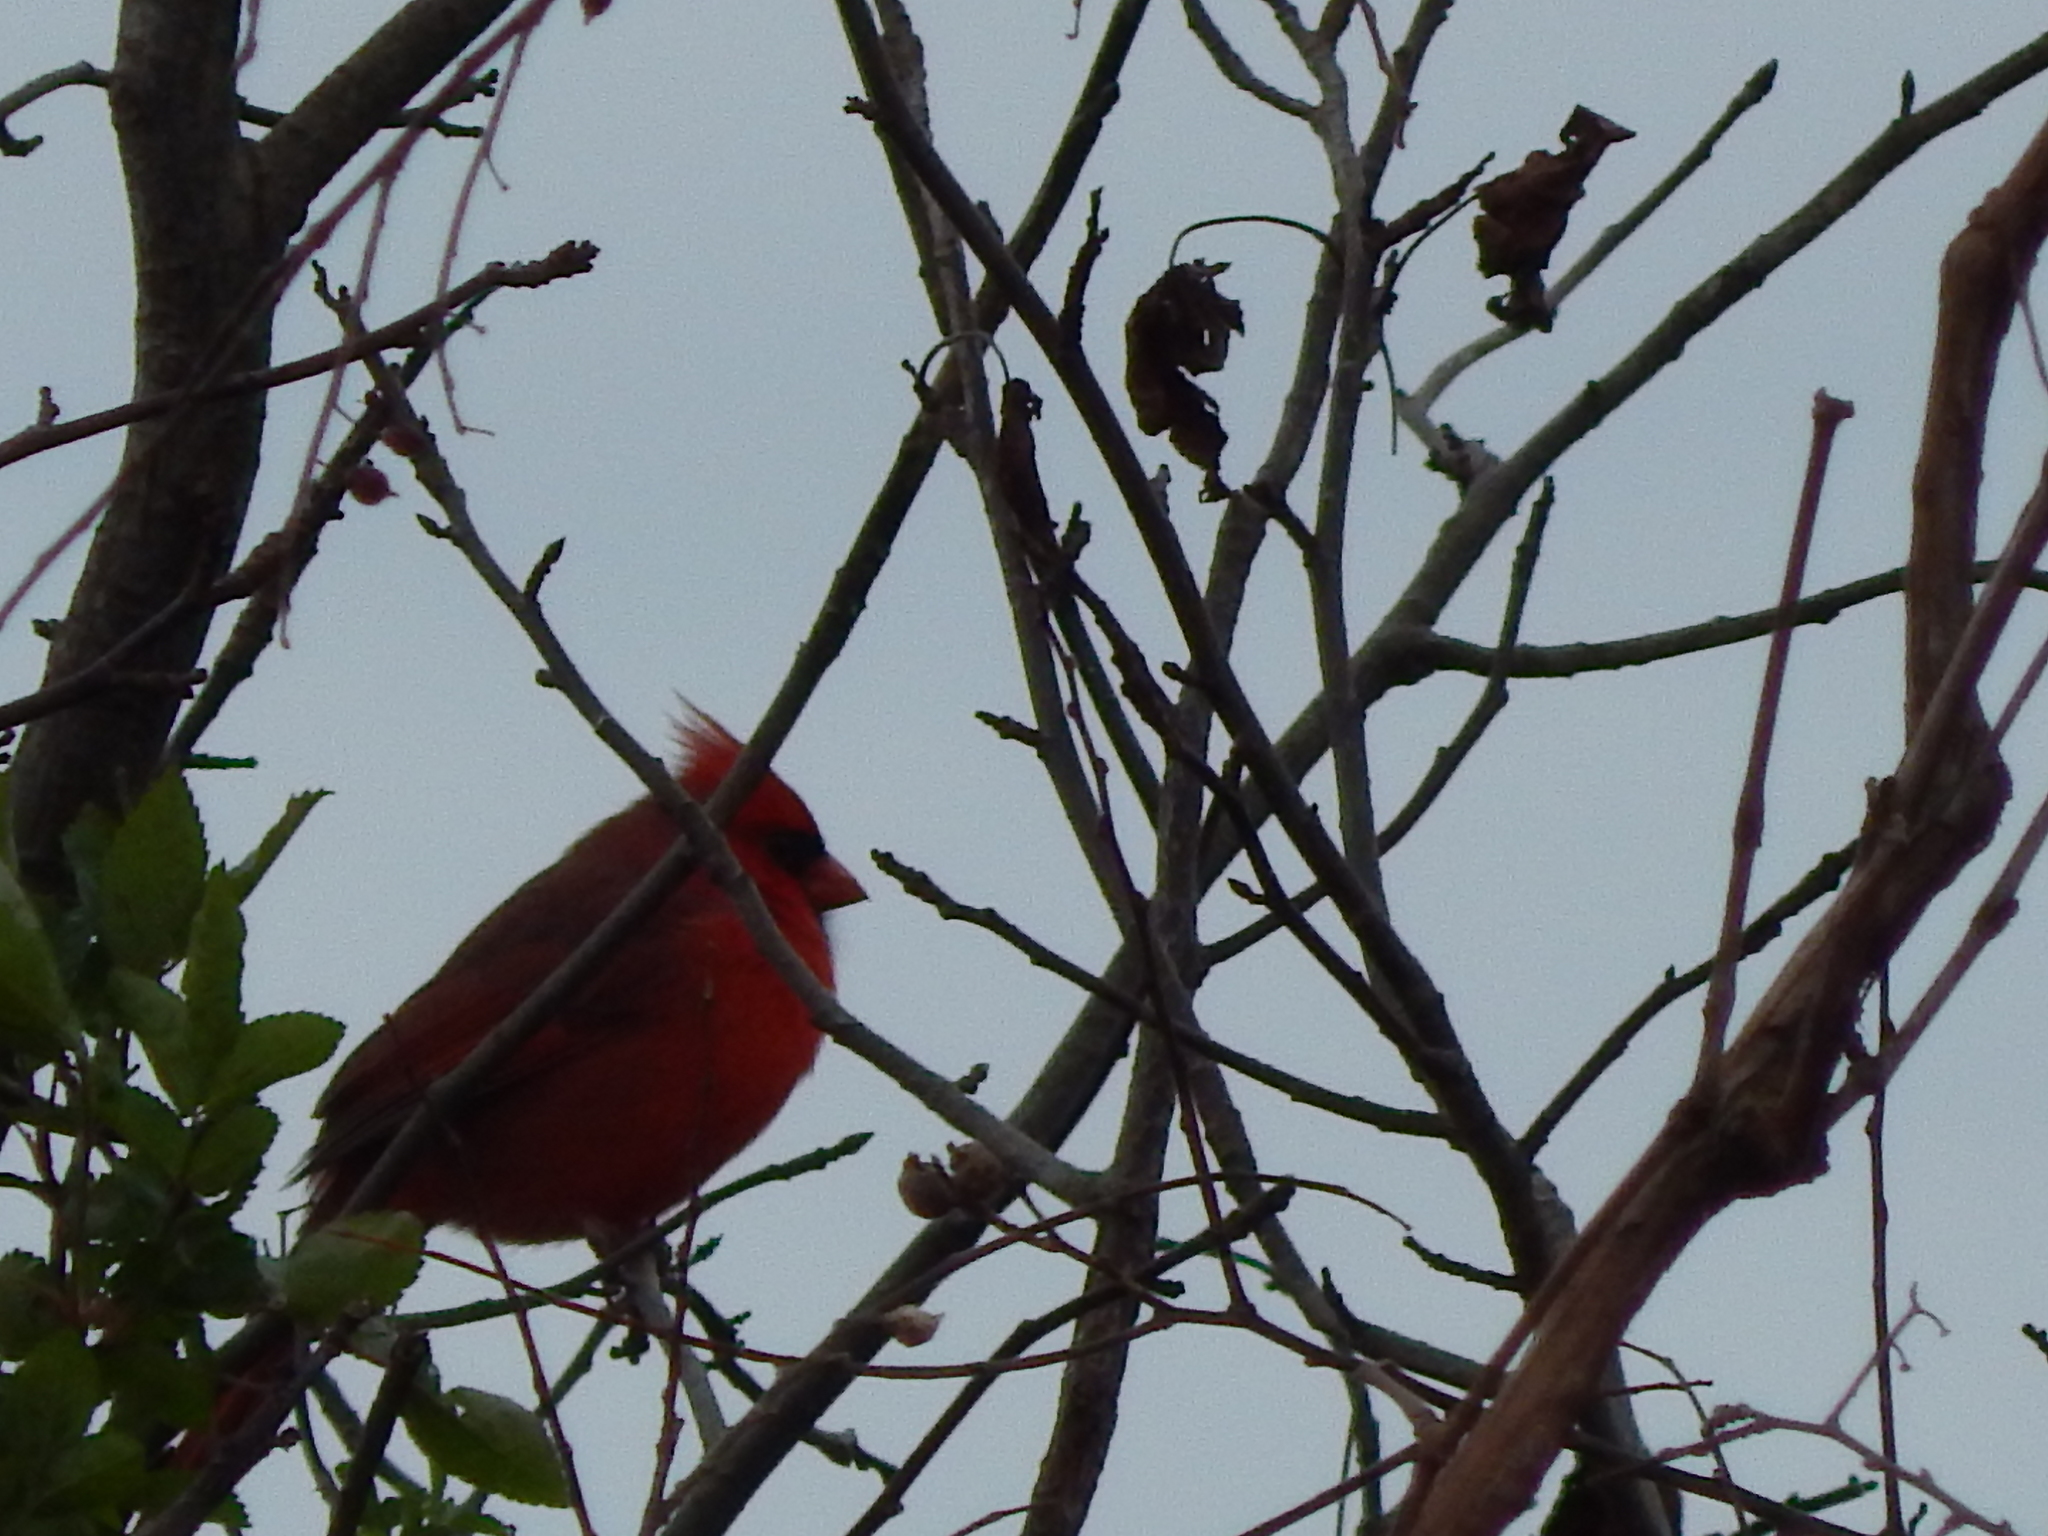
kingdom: Animalia
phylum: Chordata
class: Aves
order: Passeriformes
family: Cardinalidae
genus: Cardinalis
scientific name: Cardinalis cardinalis
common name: Northern cardinal
